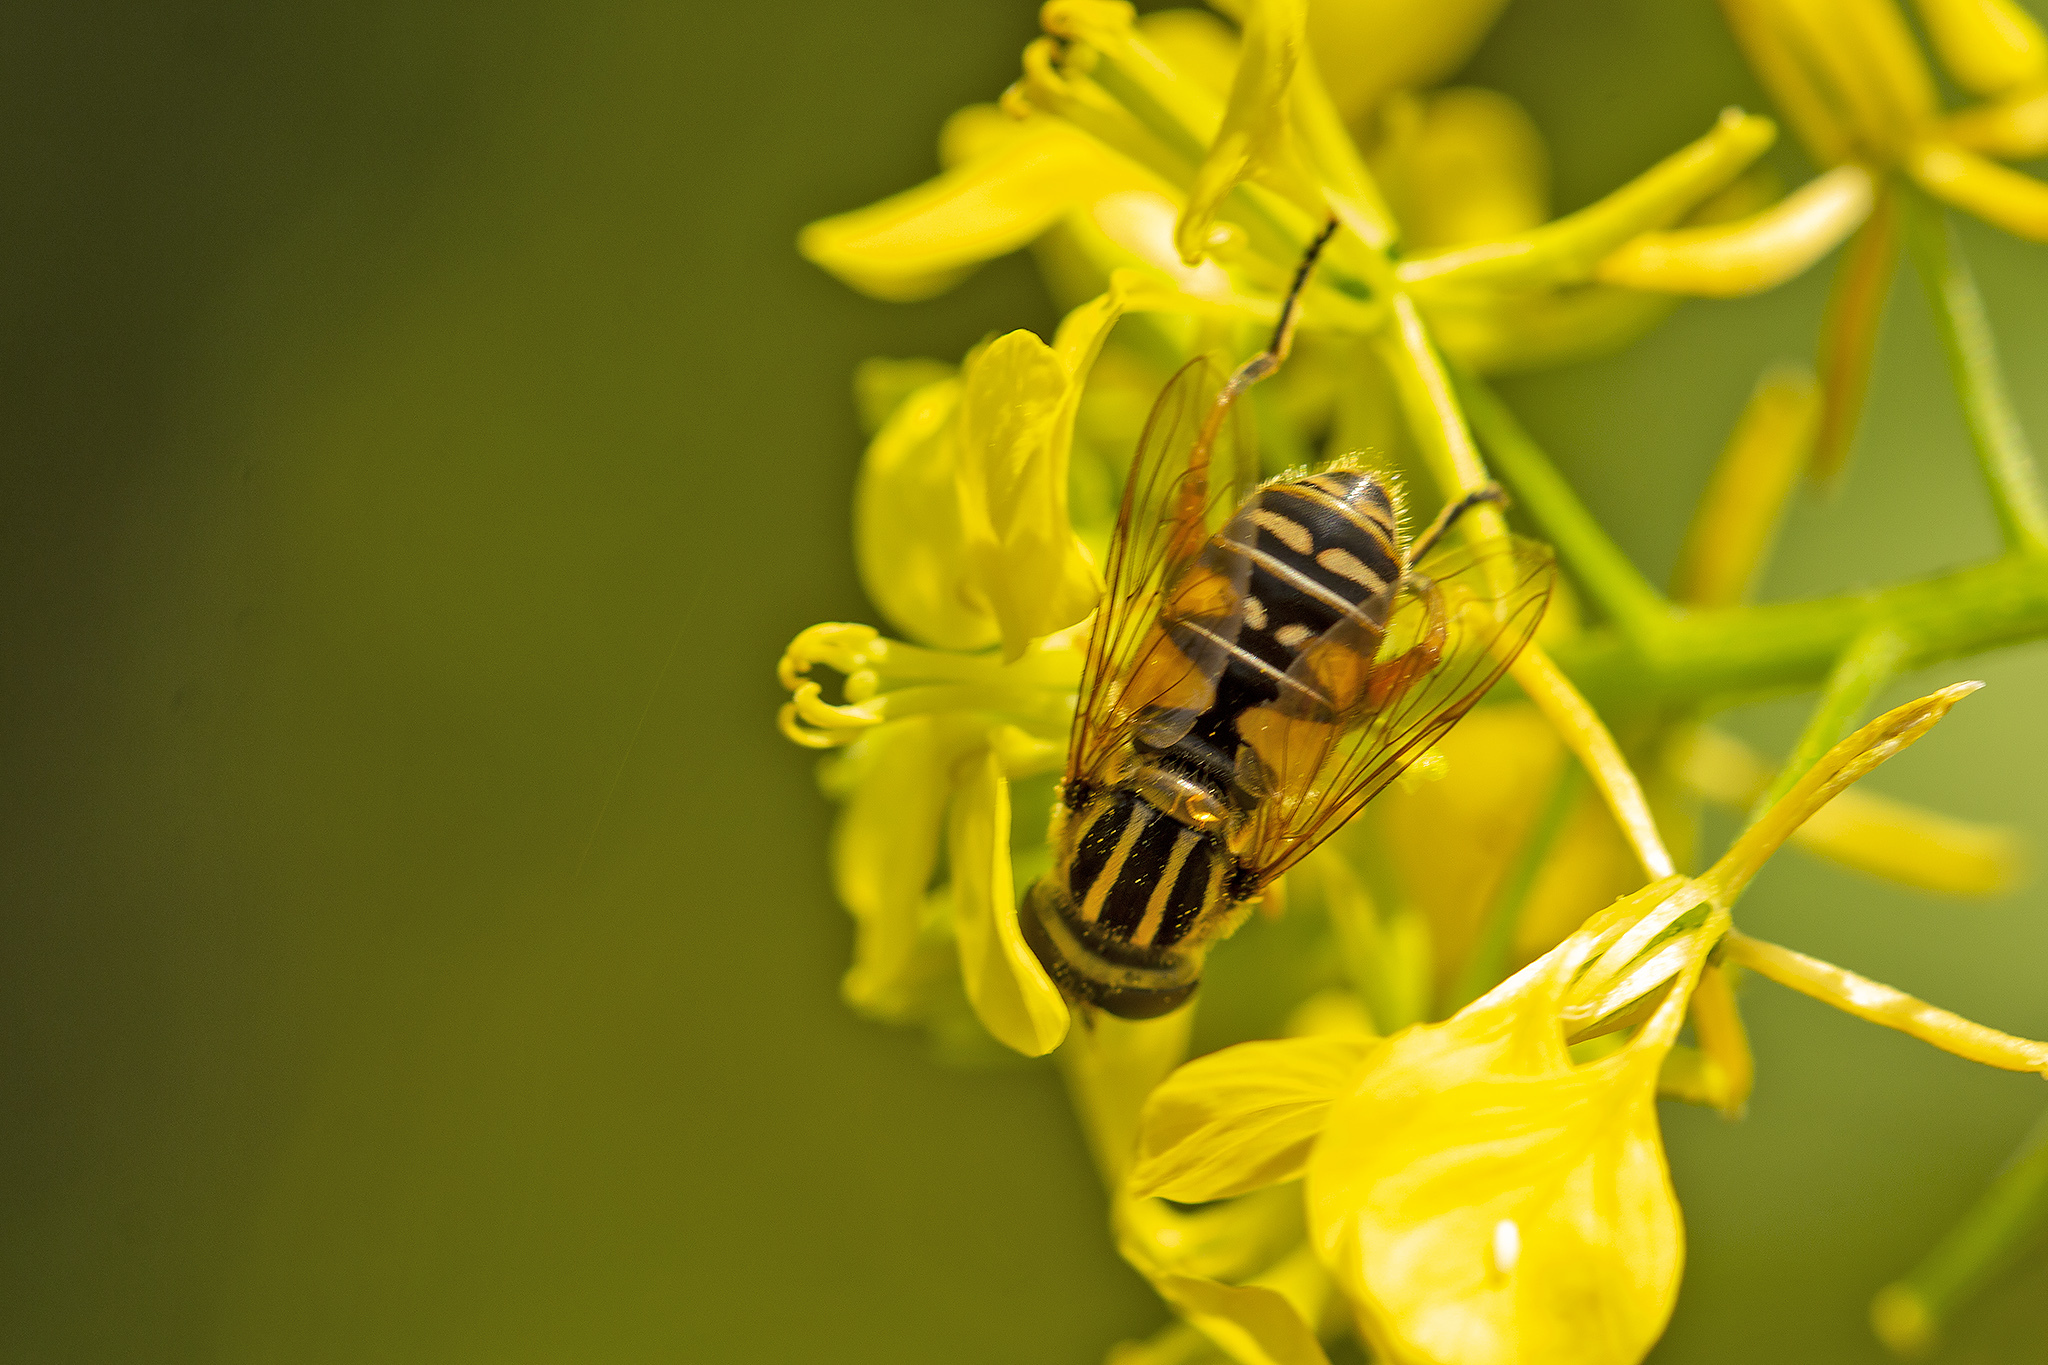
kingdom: Animalia
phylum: Arthropoda
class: Insecta
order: Diptera
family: Syrphidae
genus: Helophilus
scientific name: Helophilus pendulus
